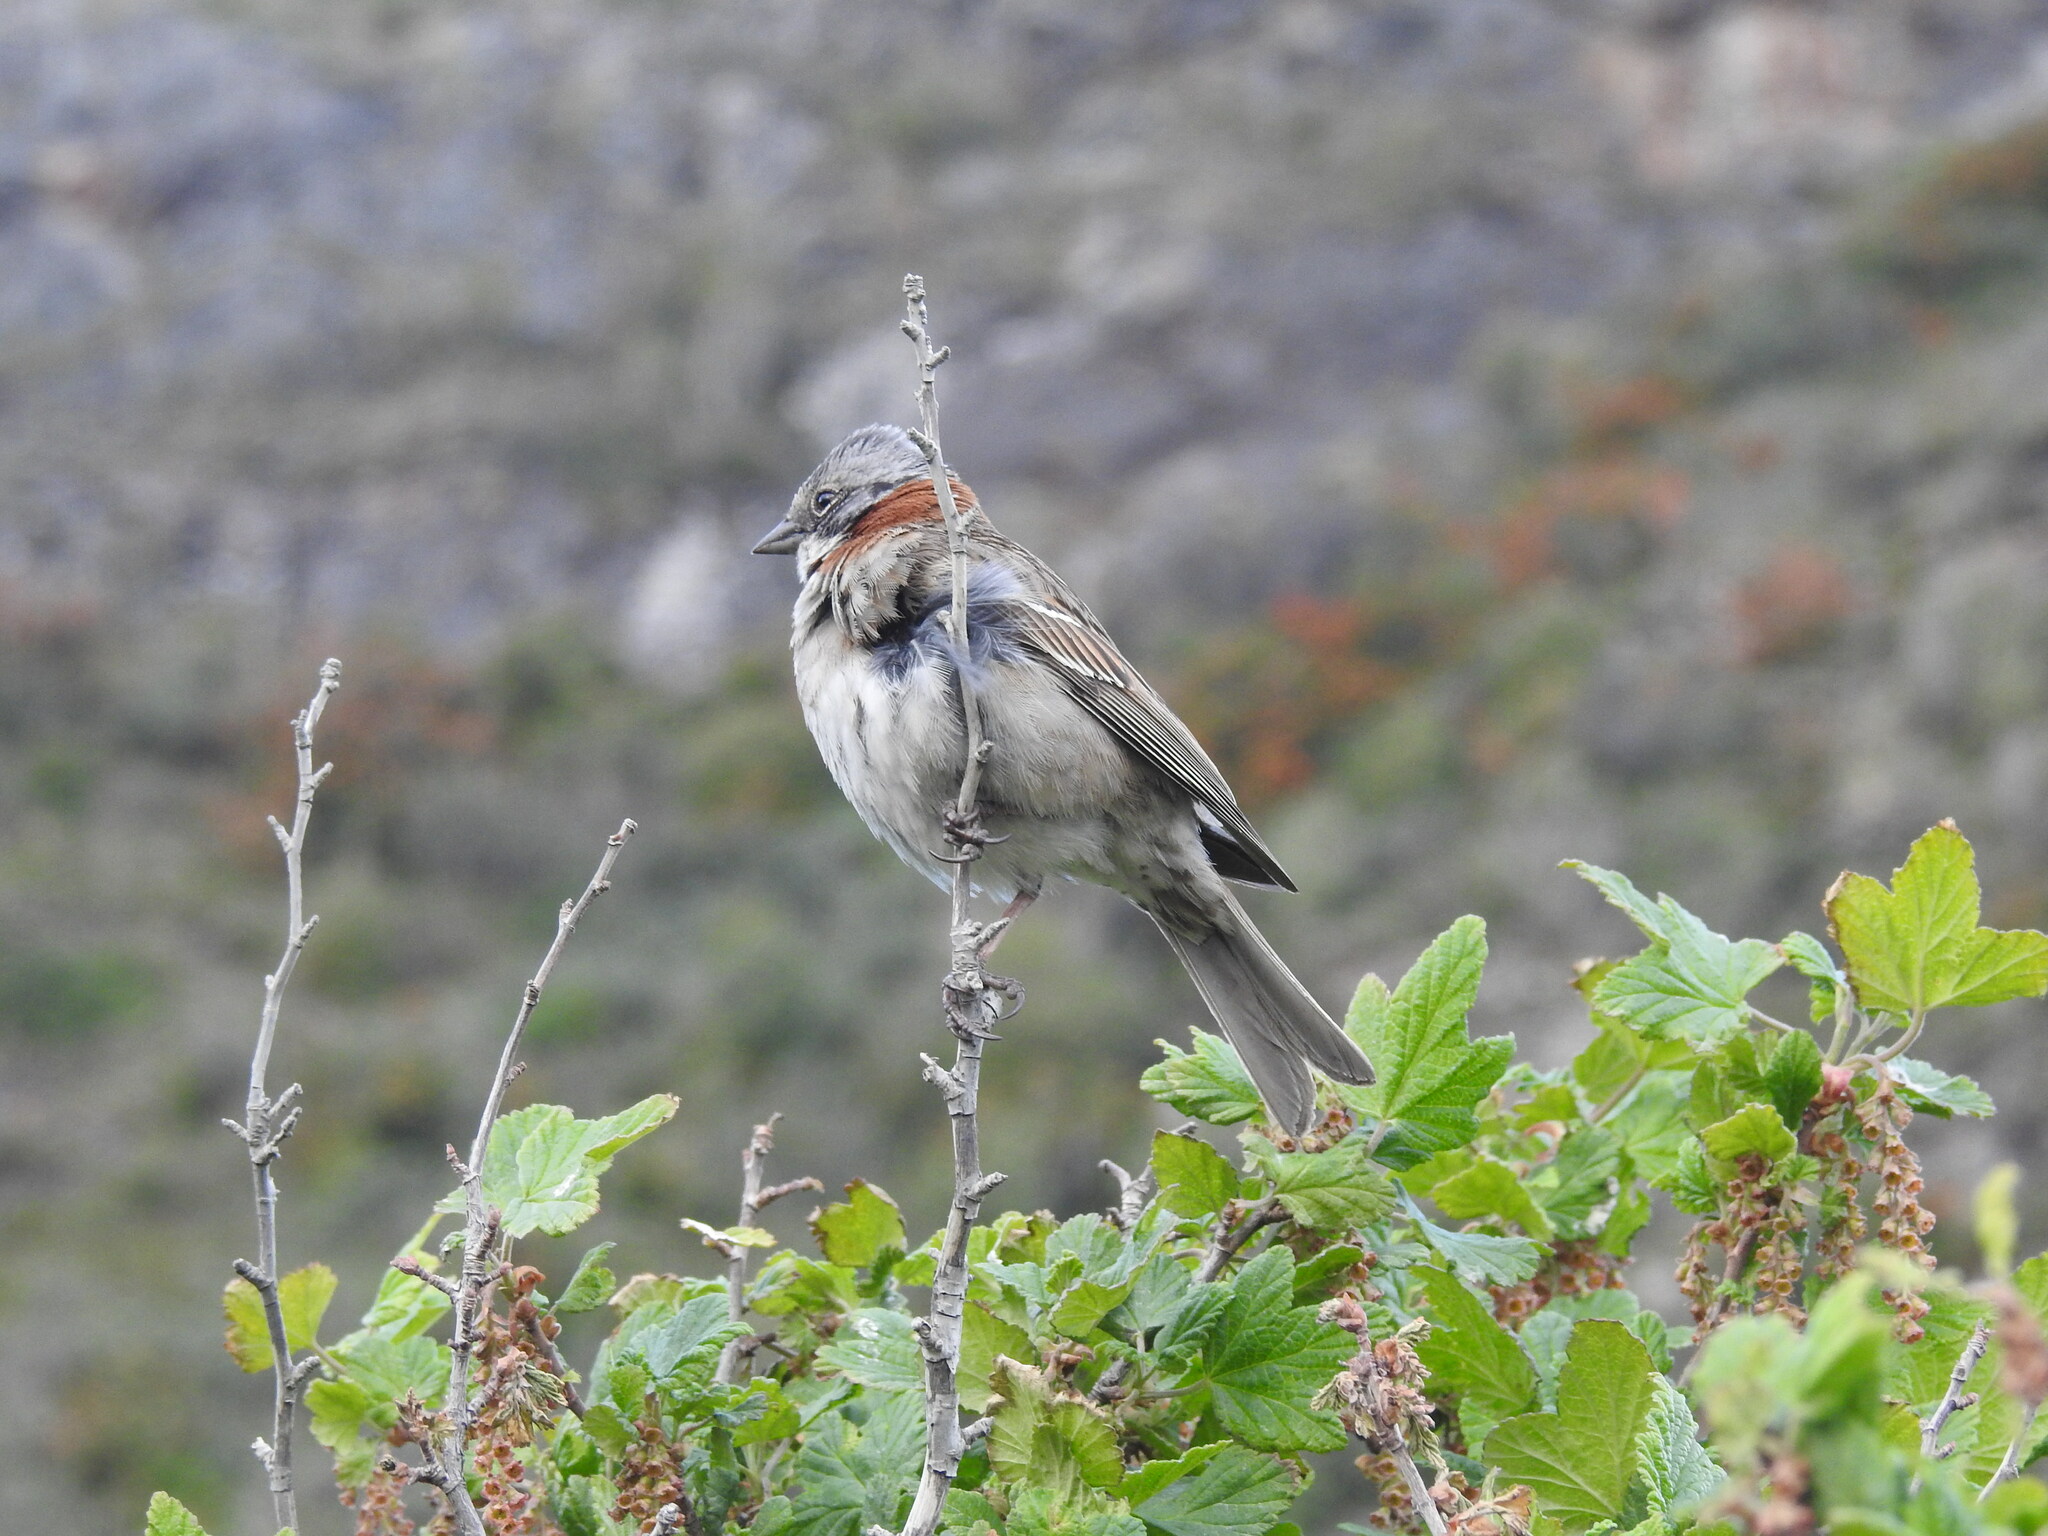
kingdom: Animalia
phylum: Chordata
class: Aves
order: Passeriformes
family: Passerellidae
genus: Zonotrichia
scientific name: Zonotrichia capensis
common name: Rufous-collared sparrow
